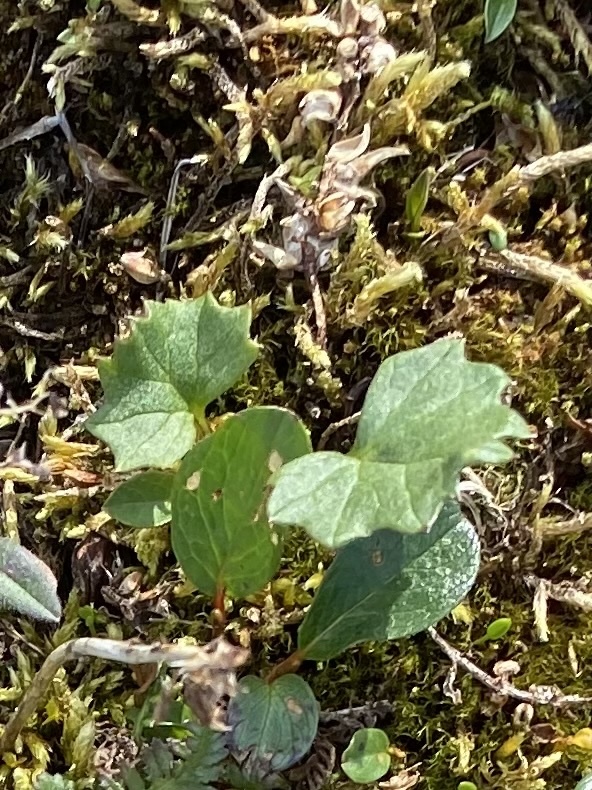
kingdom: Plantae
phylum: Tracheophyta
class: Magnoliopsida
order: Asterales
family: Asteraceae
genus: Endocellion
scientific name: Endocellion glaciale
